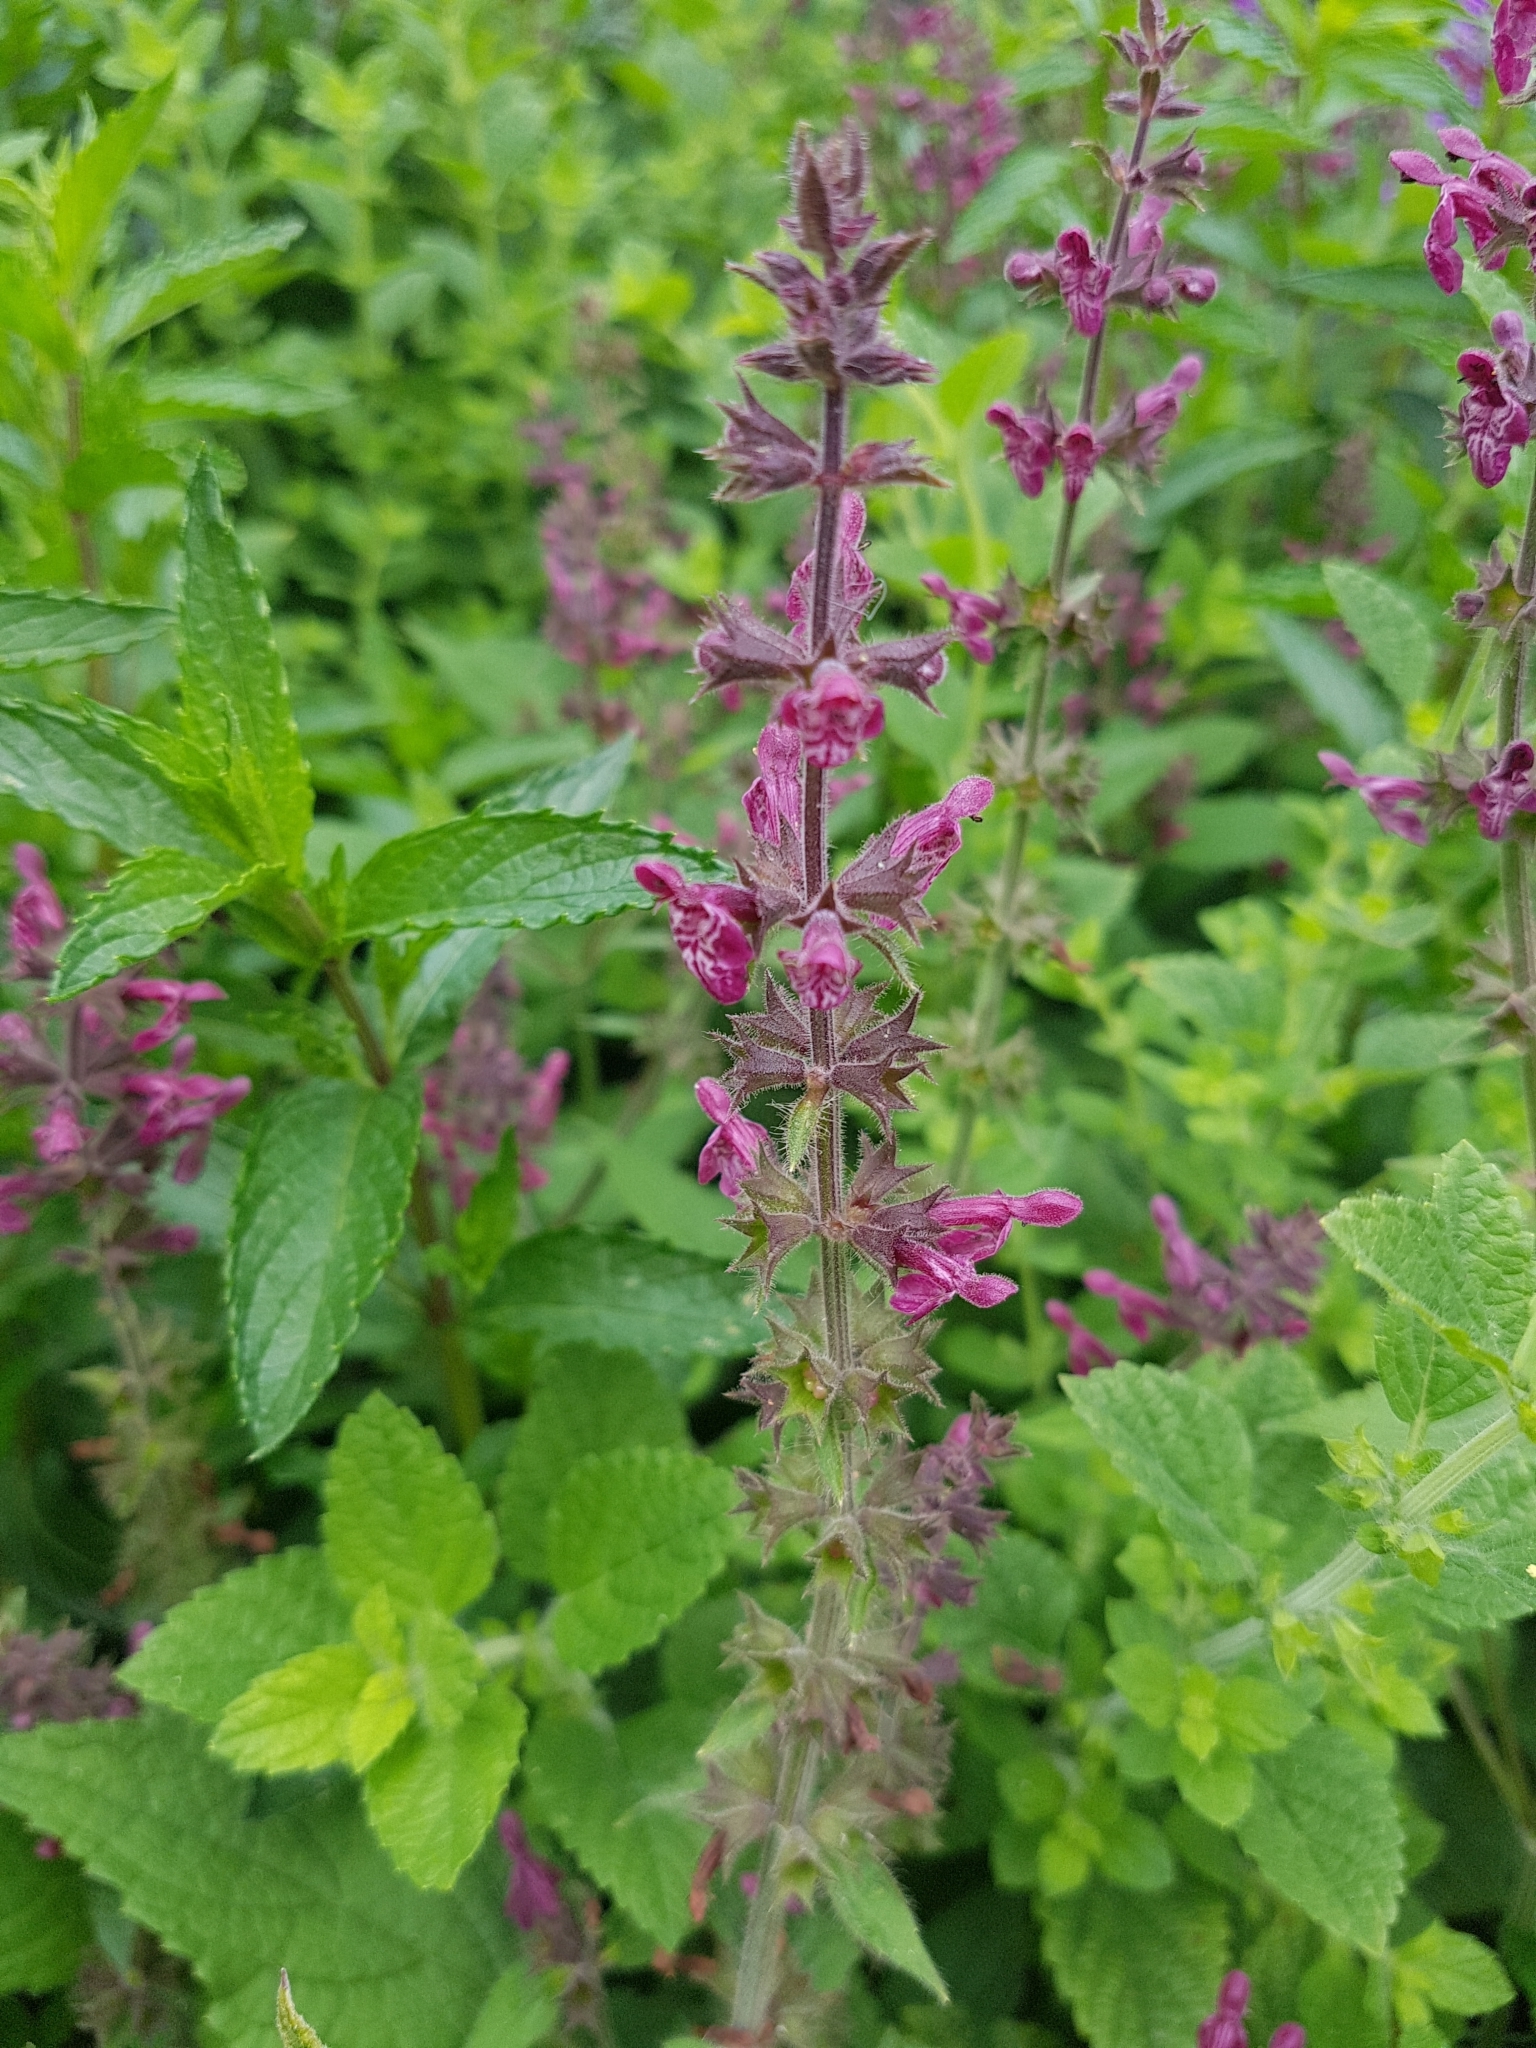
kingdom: Plantae
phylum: Tracheophyta
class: Magnoliopsida
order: Lamiales
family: Lamiaceae
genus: Stachys
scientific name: Stachys sylvatica
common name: Hedge woundwort
